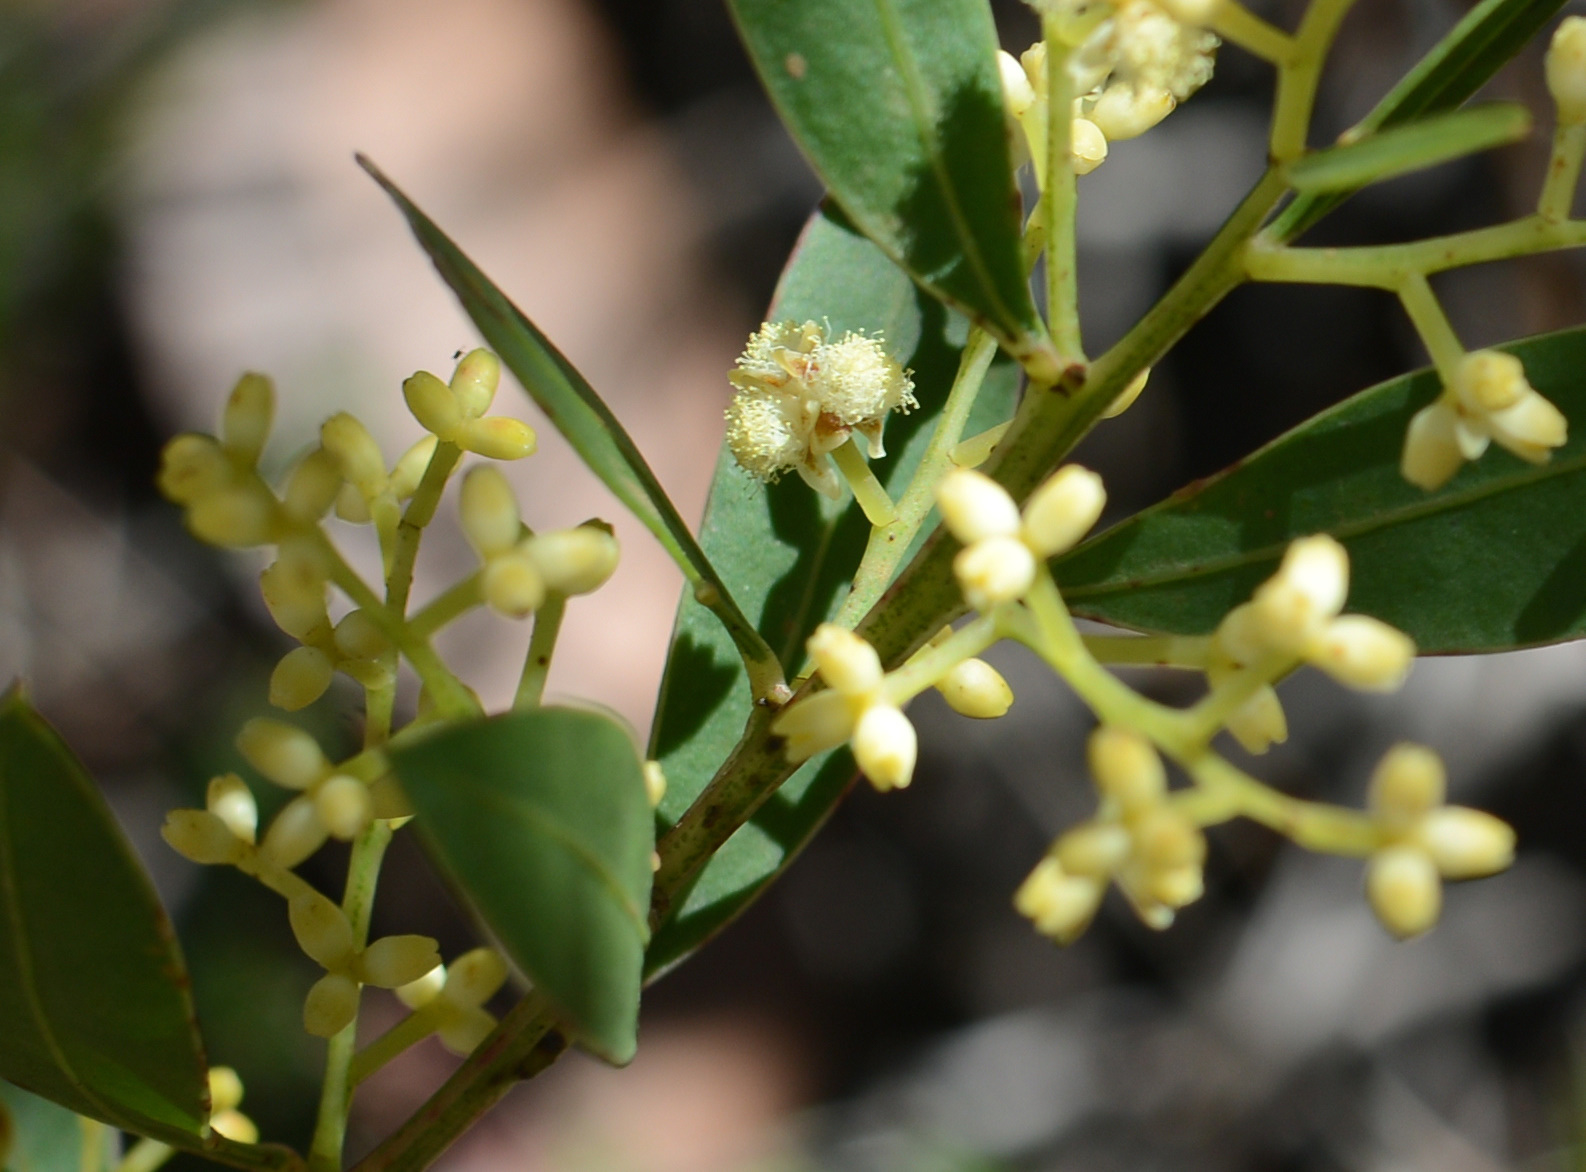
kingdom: Plantae
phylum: Tracheophyta
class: Magnoliopsida
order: Fabales
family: Fabaceae
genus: Acacia
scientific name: Acacia myrtifolia
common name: Myrtle wattle
